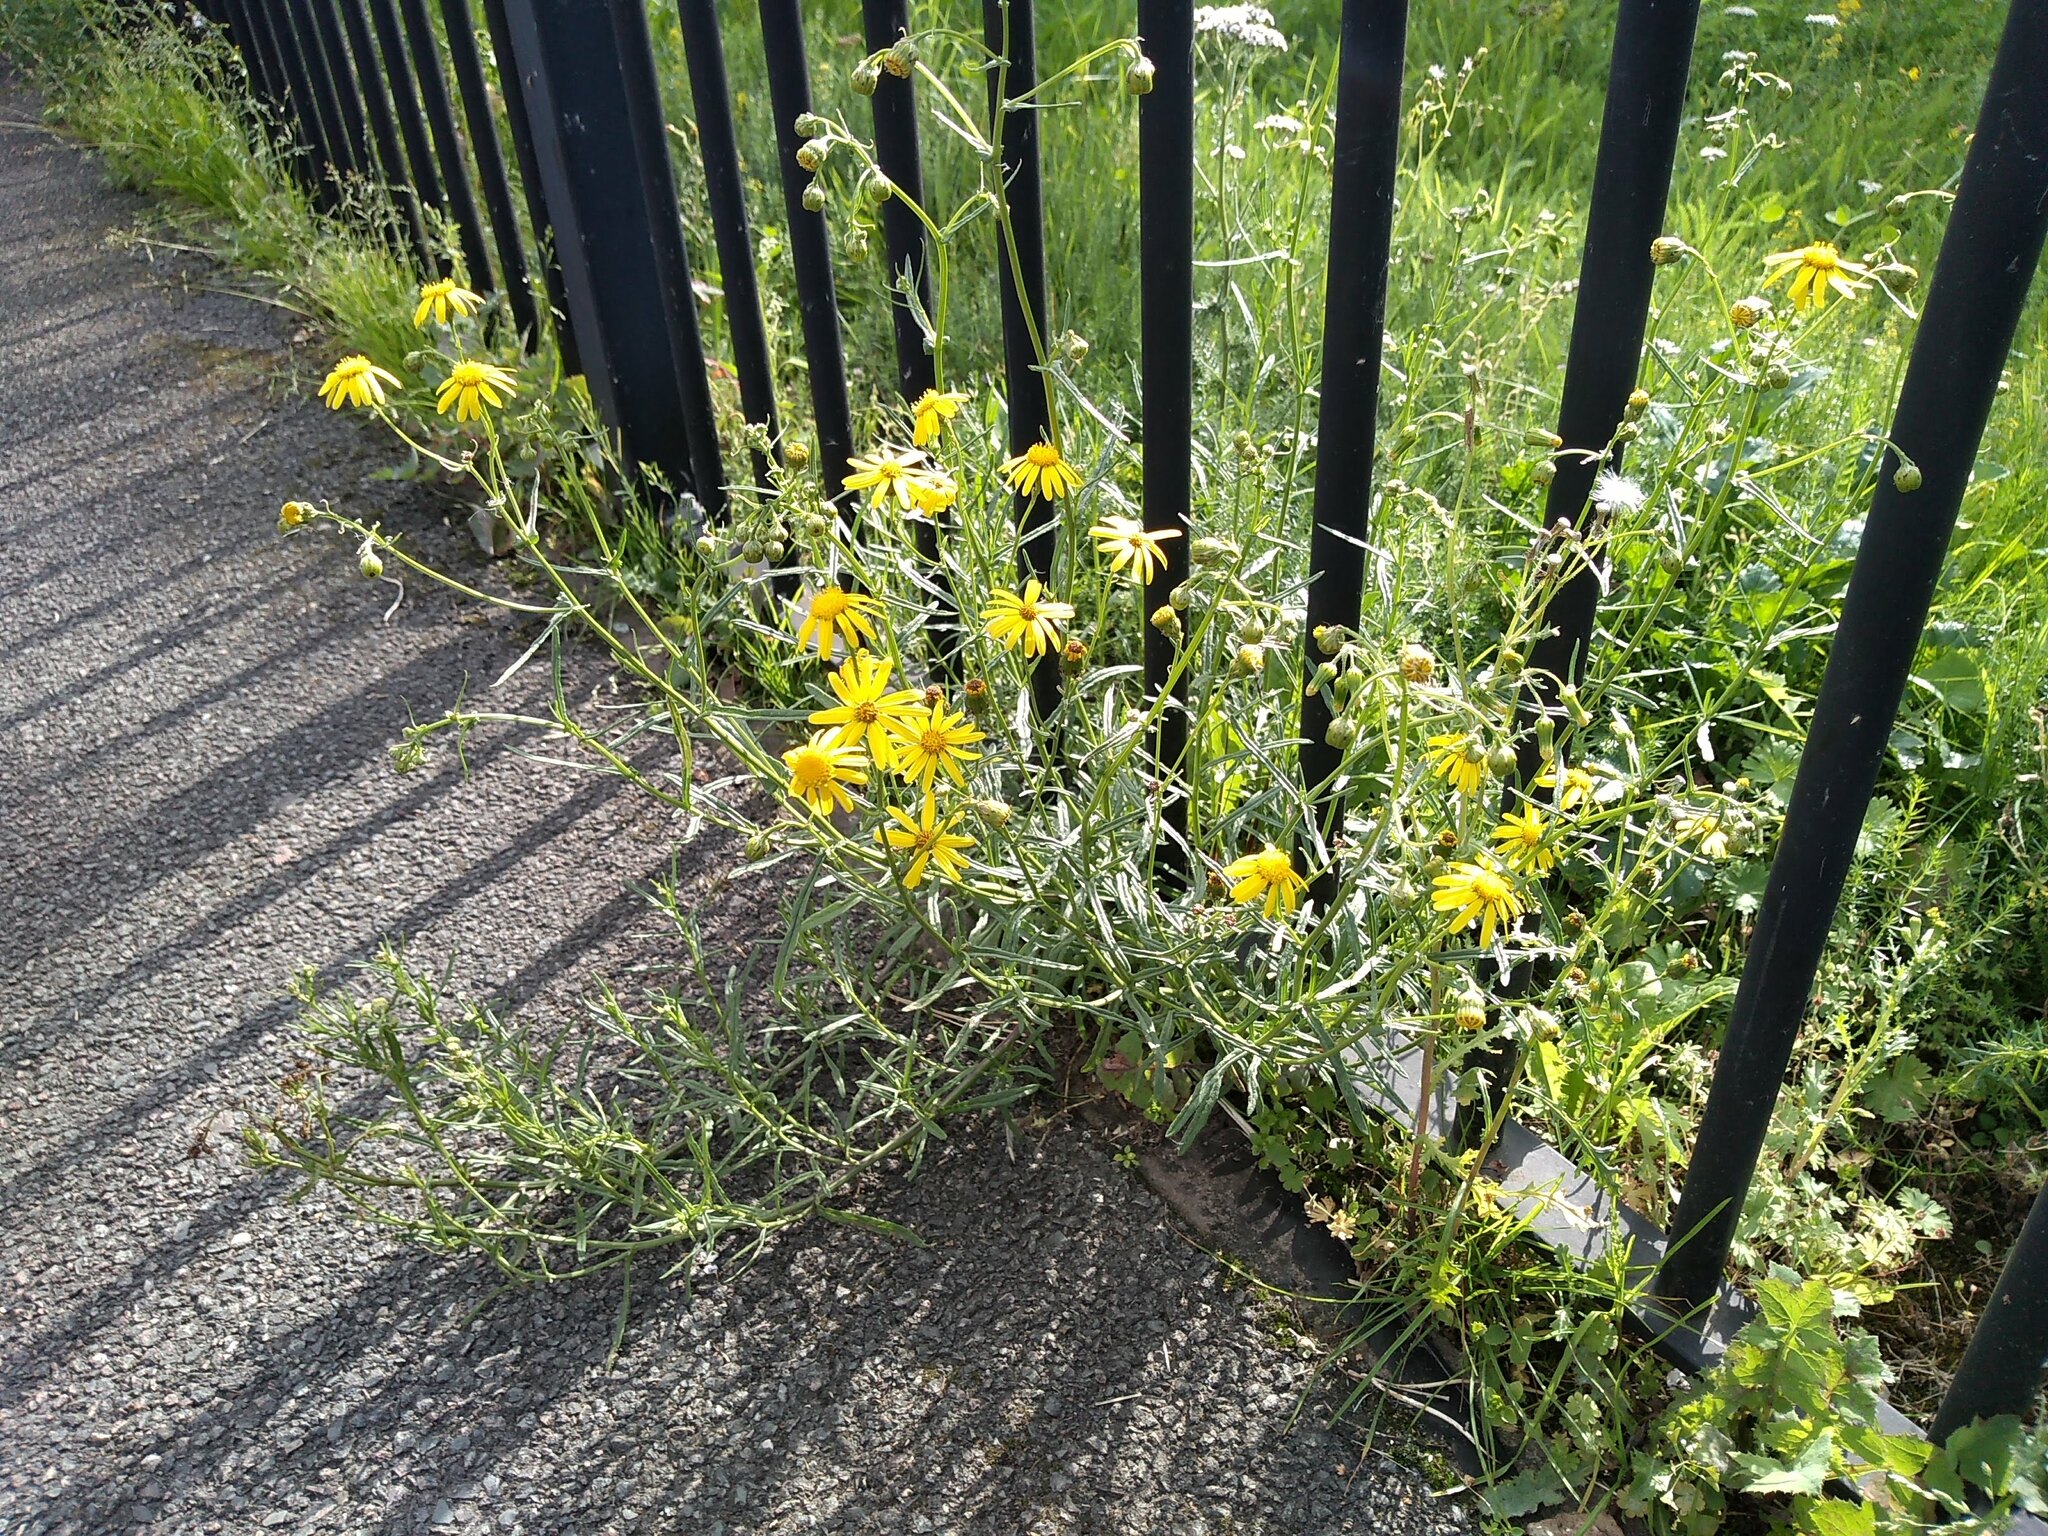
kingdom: Plantae
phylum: Tracheophyta
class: Magnoliopsida
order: Asterales
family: Asteraceae
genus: Senecio
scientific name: Senecio inaequidens
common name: Narrow-leaved ragwort
